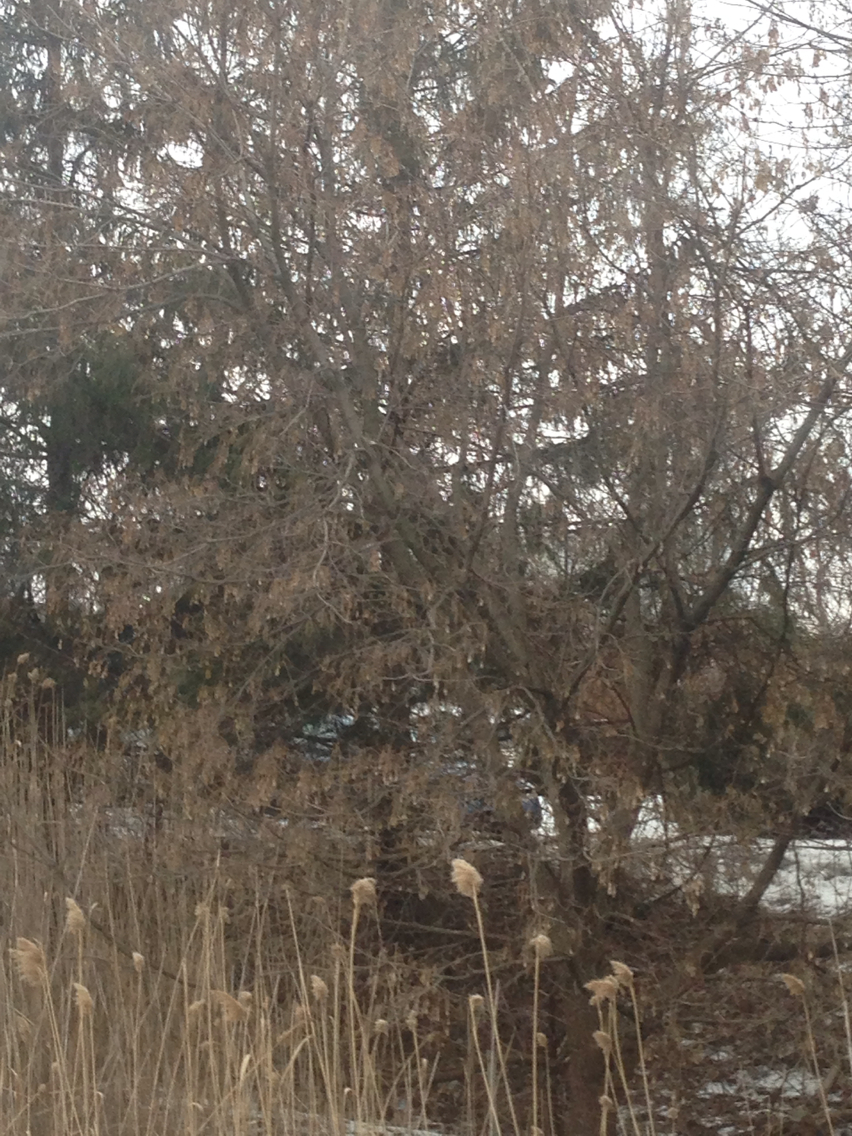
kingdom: Plantae
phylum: Tracheophyta
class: Magnoliopsida
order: Sapindales
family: Sapindaceae
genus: Acer
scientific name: Acer negundo
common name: Ashleaf maple
